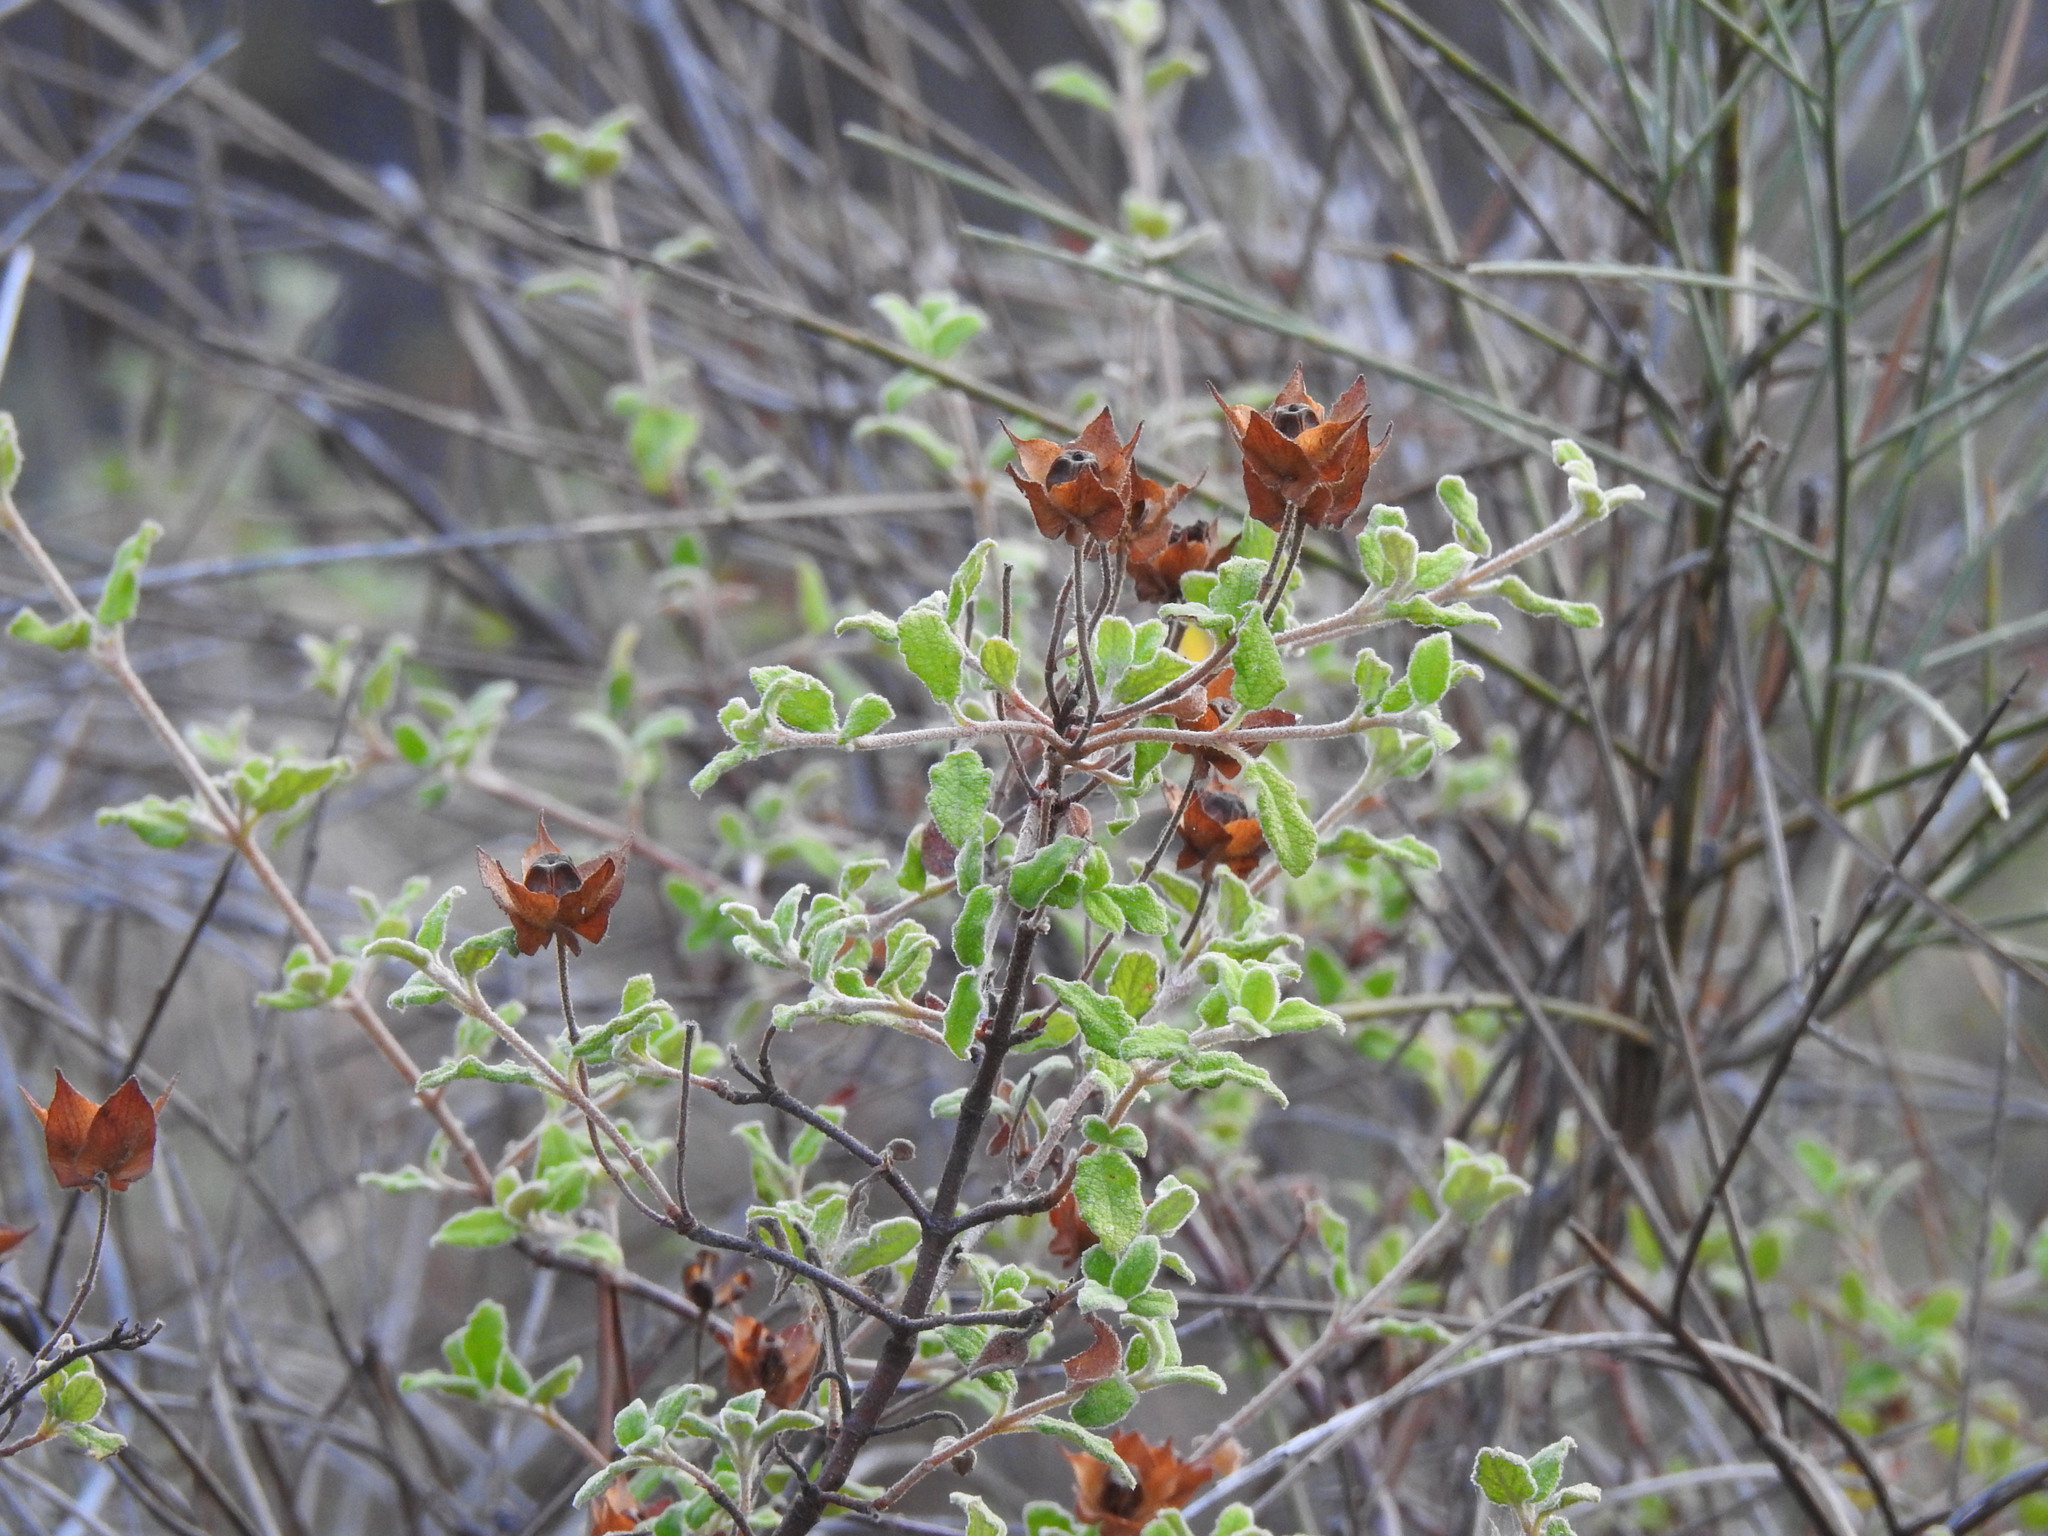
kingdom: Plantae
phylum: Tracheophyta
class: Magnoliopsida
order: Malvales
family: Cistaceae
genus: Cistus
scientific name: Cistus salviifolius
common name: Salvia cistus
